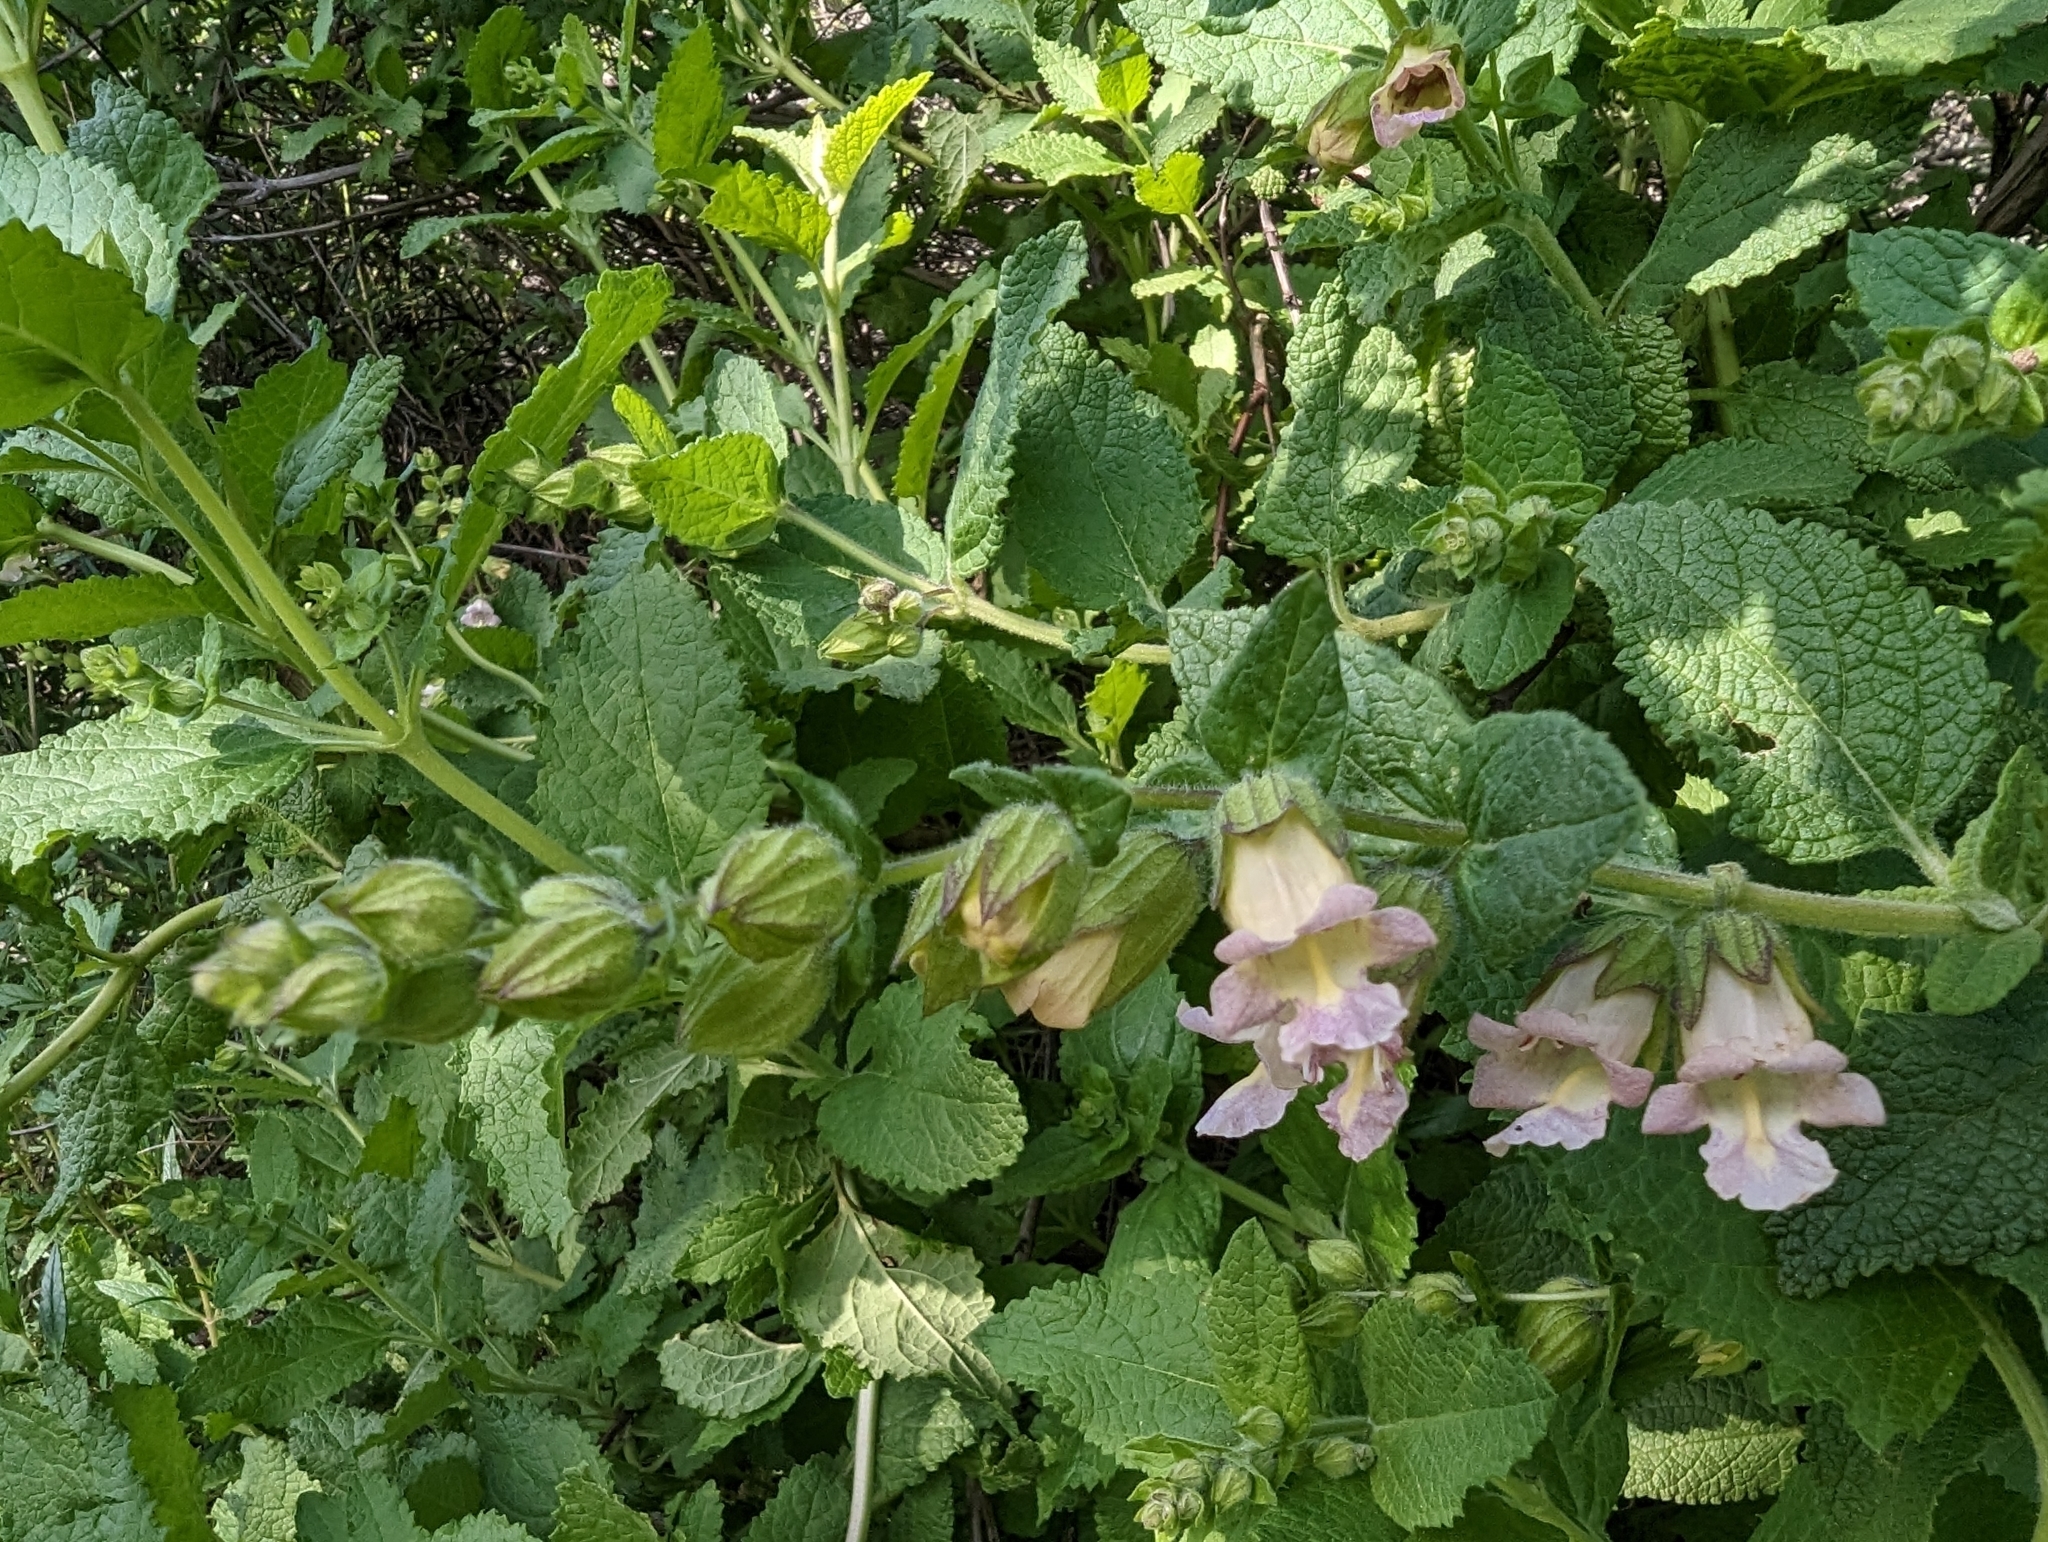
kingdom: Plantae
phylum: Tracheophyta
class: Magnoliopsida
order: Lamiales
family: Lamiaceae
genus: Lepechinia
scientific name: Lepechinia calycina
